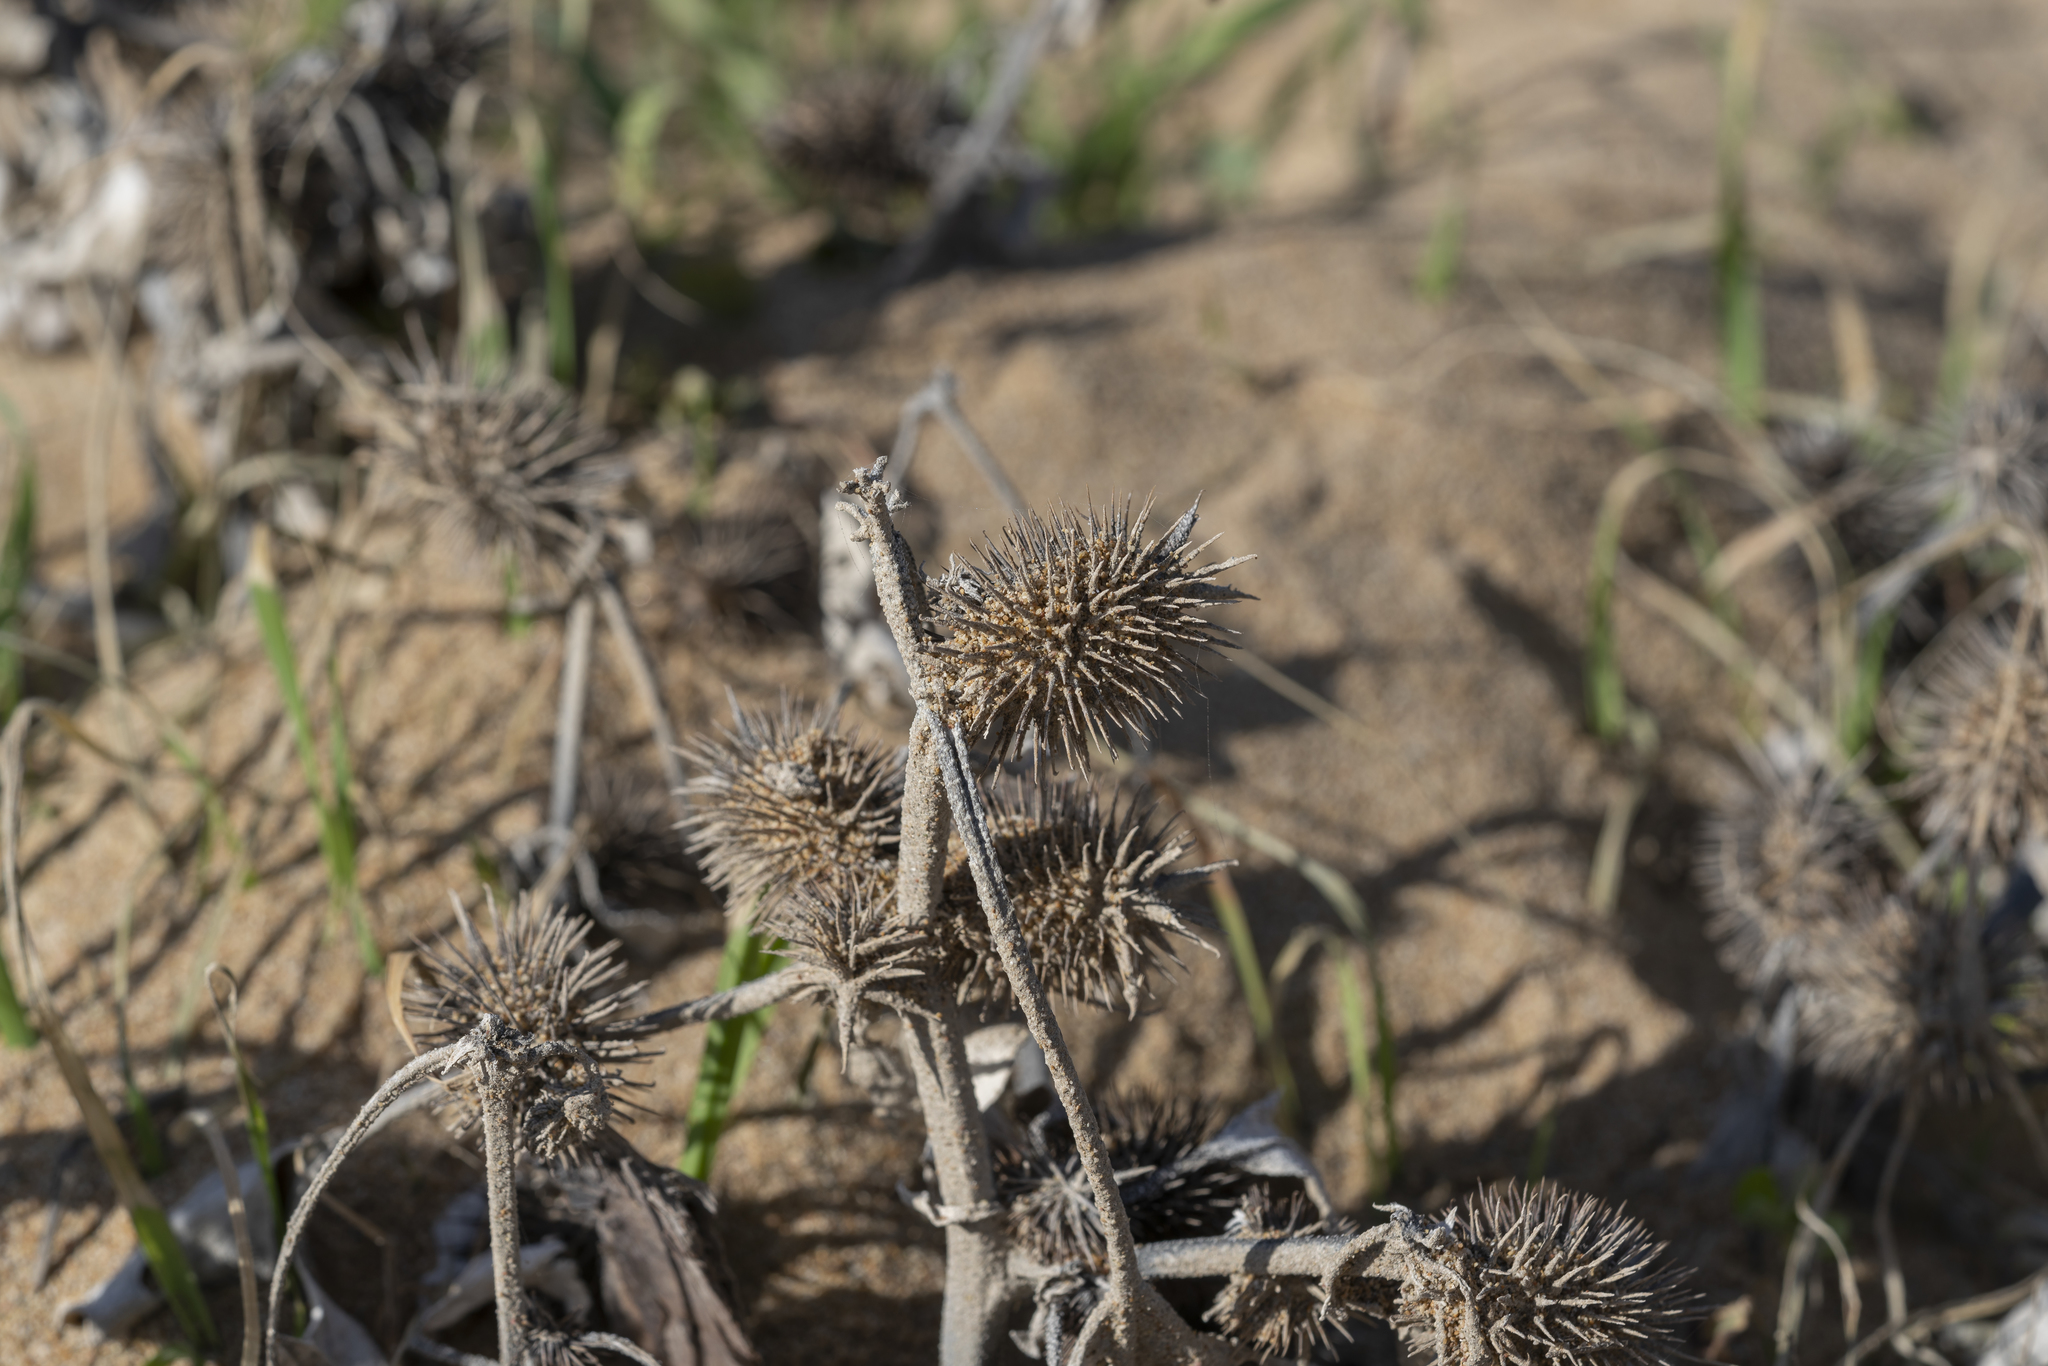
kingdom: Plantae
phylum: Tracheophyta
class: Magnoliopsida
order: Asterales
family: Asteraceae
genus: Xanthium
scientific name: Xanthium strumarium
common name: Rough cocklebur
